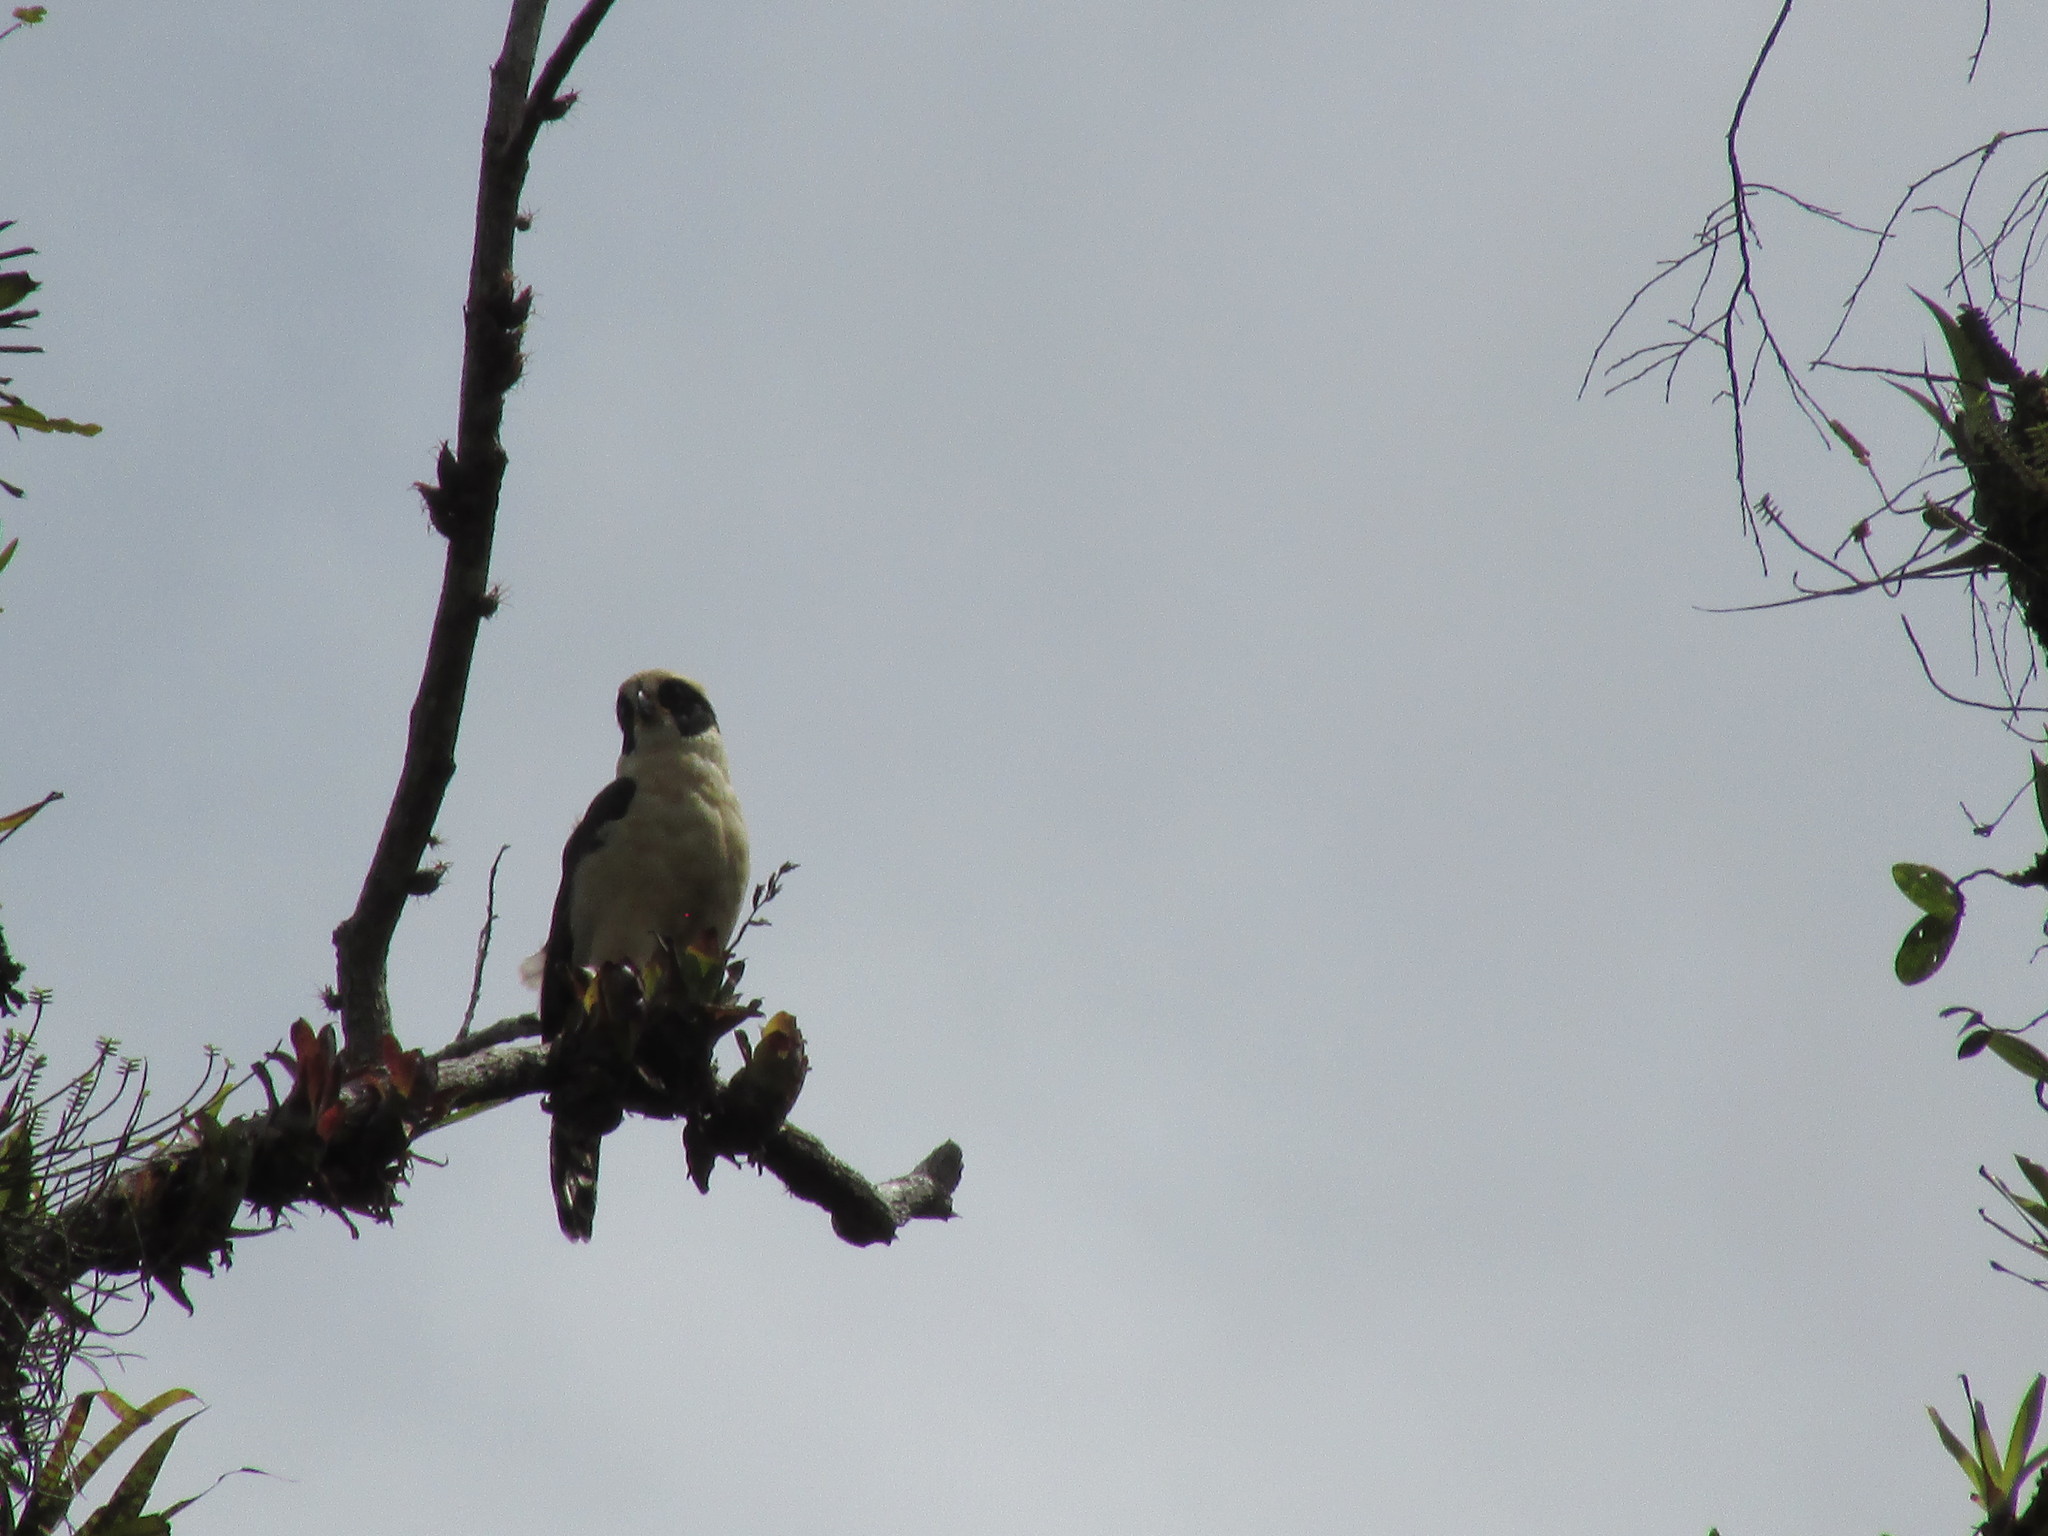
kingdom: Animalia
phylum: Chordata
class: Aves
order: Falconiformes
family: Falconidae
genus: Herpetotheres
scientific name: Herpetotheres cachinnans
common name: Laughing falcon
